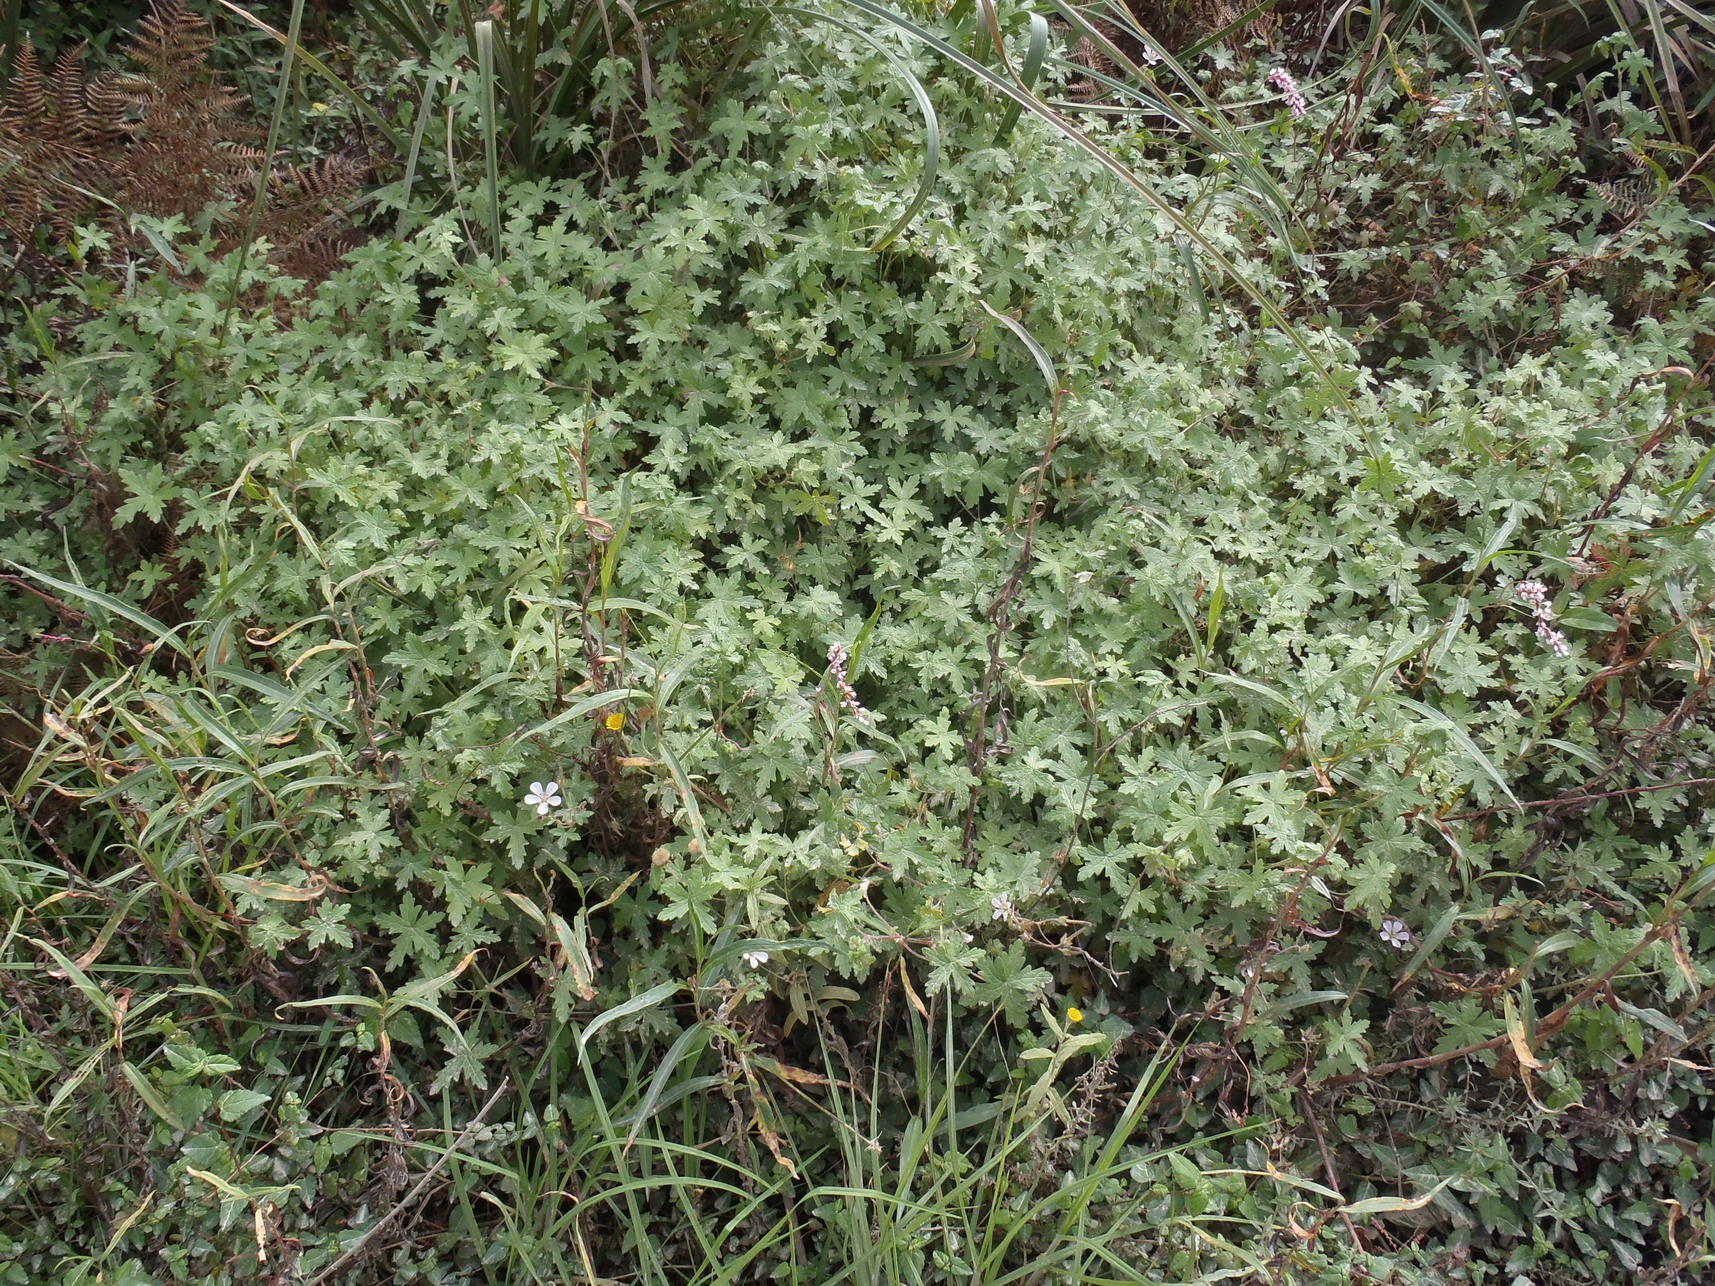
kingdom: Plantae
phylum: Tracheophyta
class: Magnoliopsida
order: Geraniales
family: Geraniaceae
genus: Geranium
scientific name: Geranium ornithopodon
